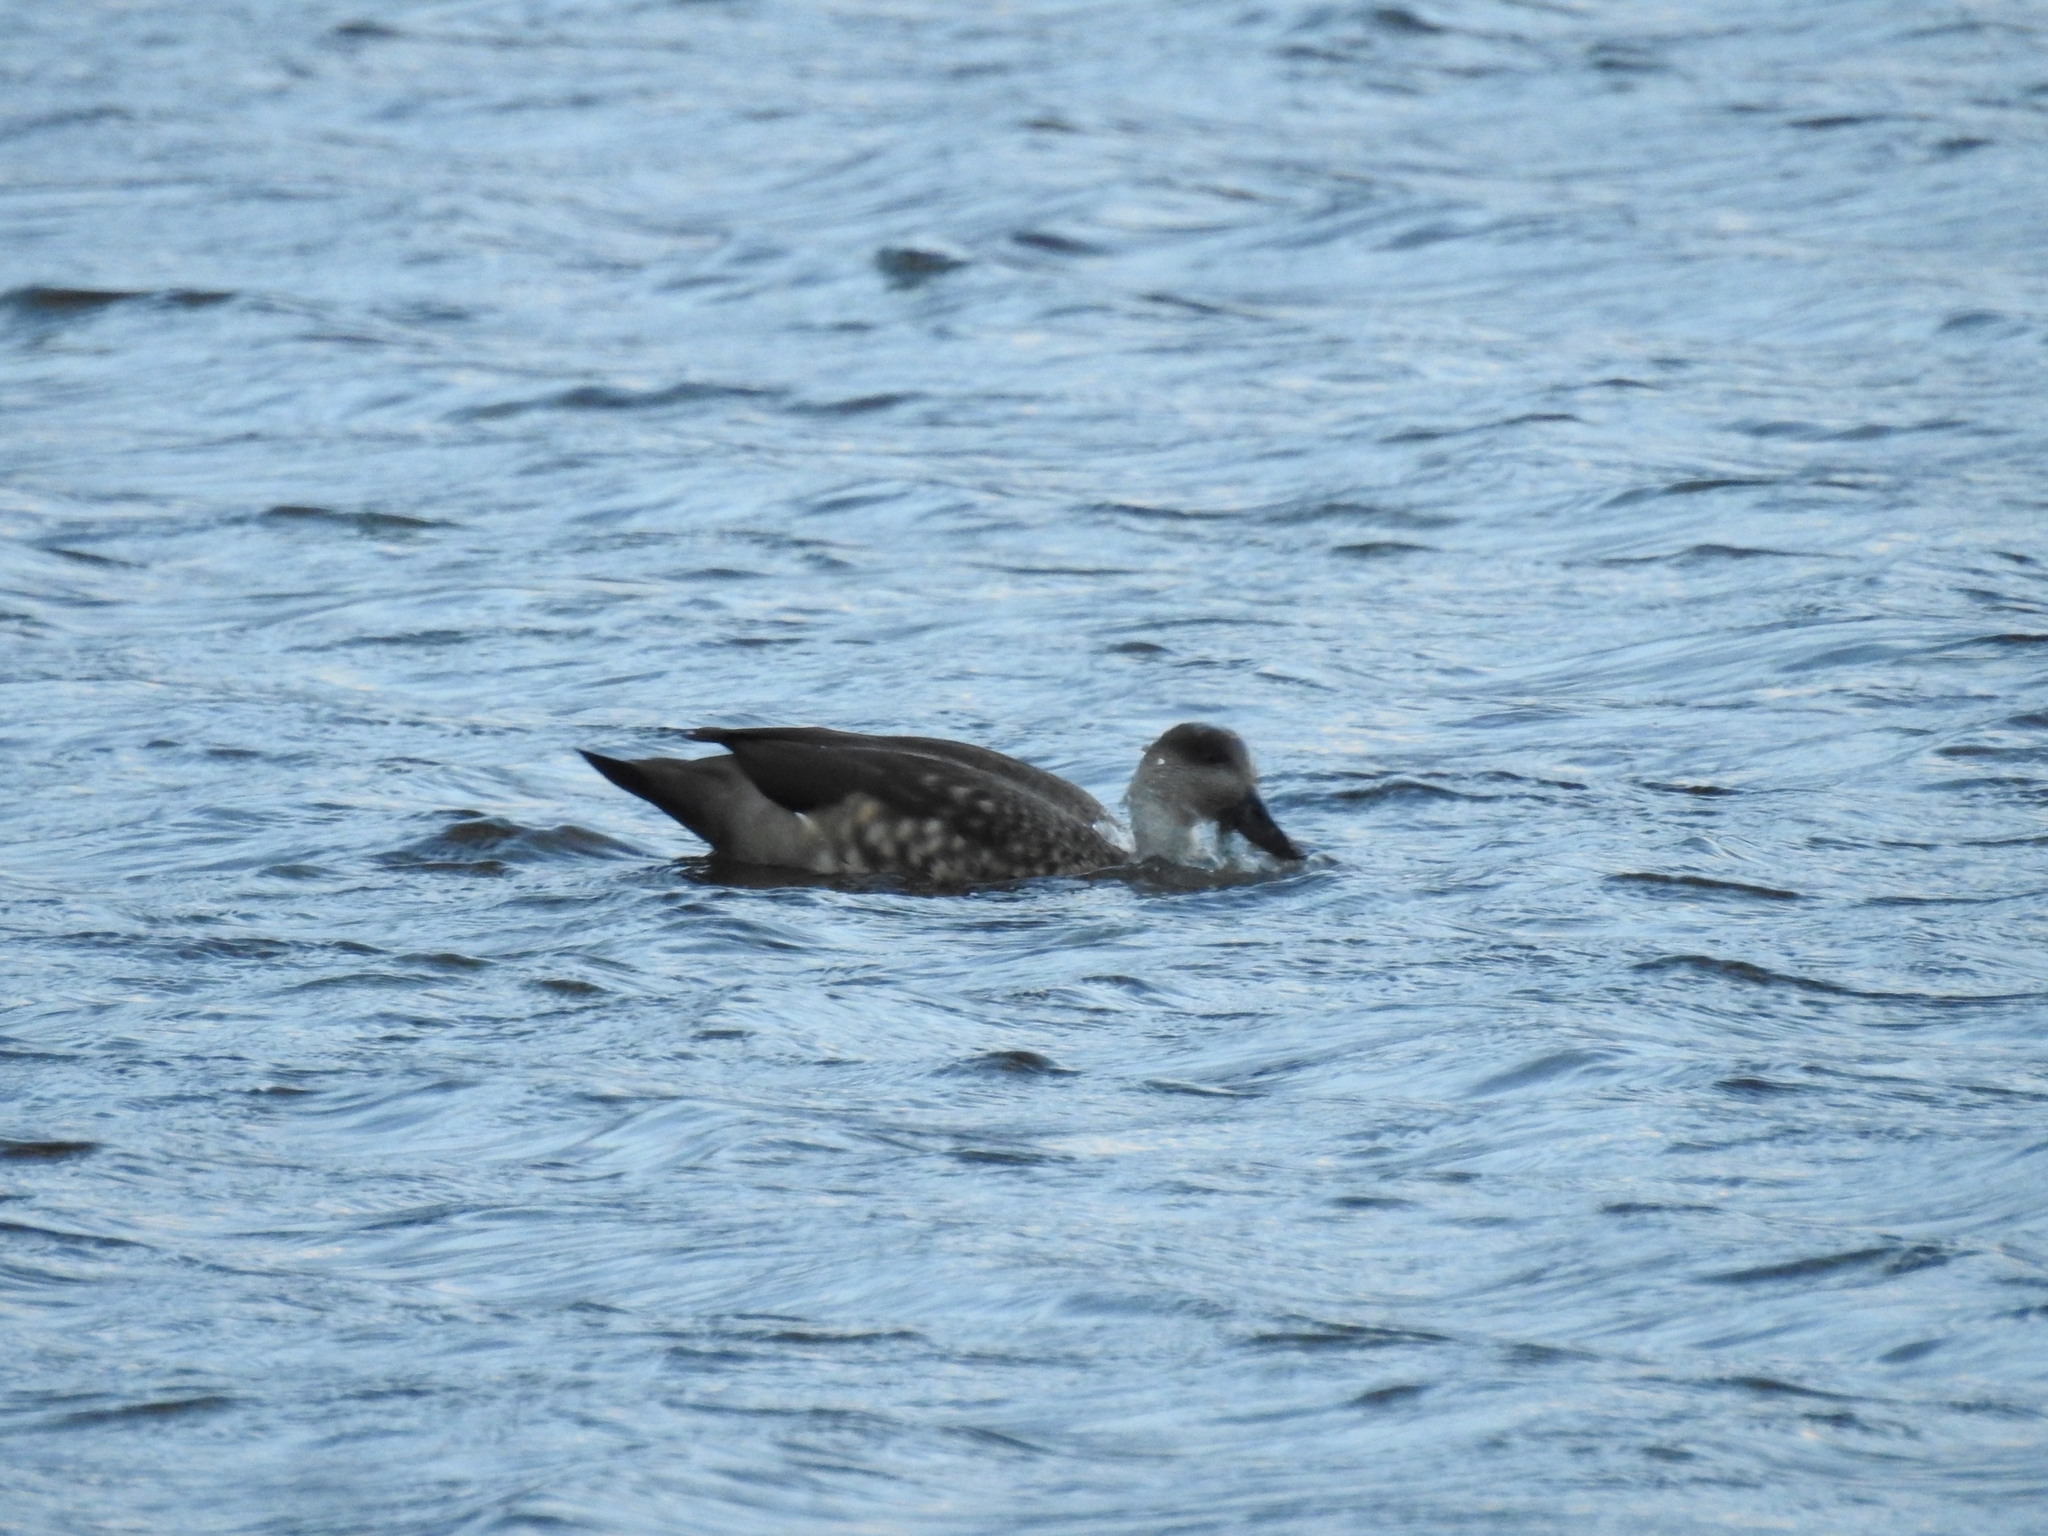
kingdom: Animalia
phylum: Chordata
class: Aves
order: Anseriformes
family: Anatidae
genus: Lophonetta
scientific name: Lophonetta specularioides
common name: Crested duck
